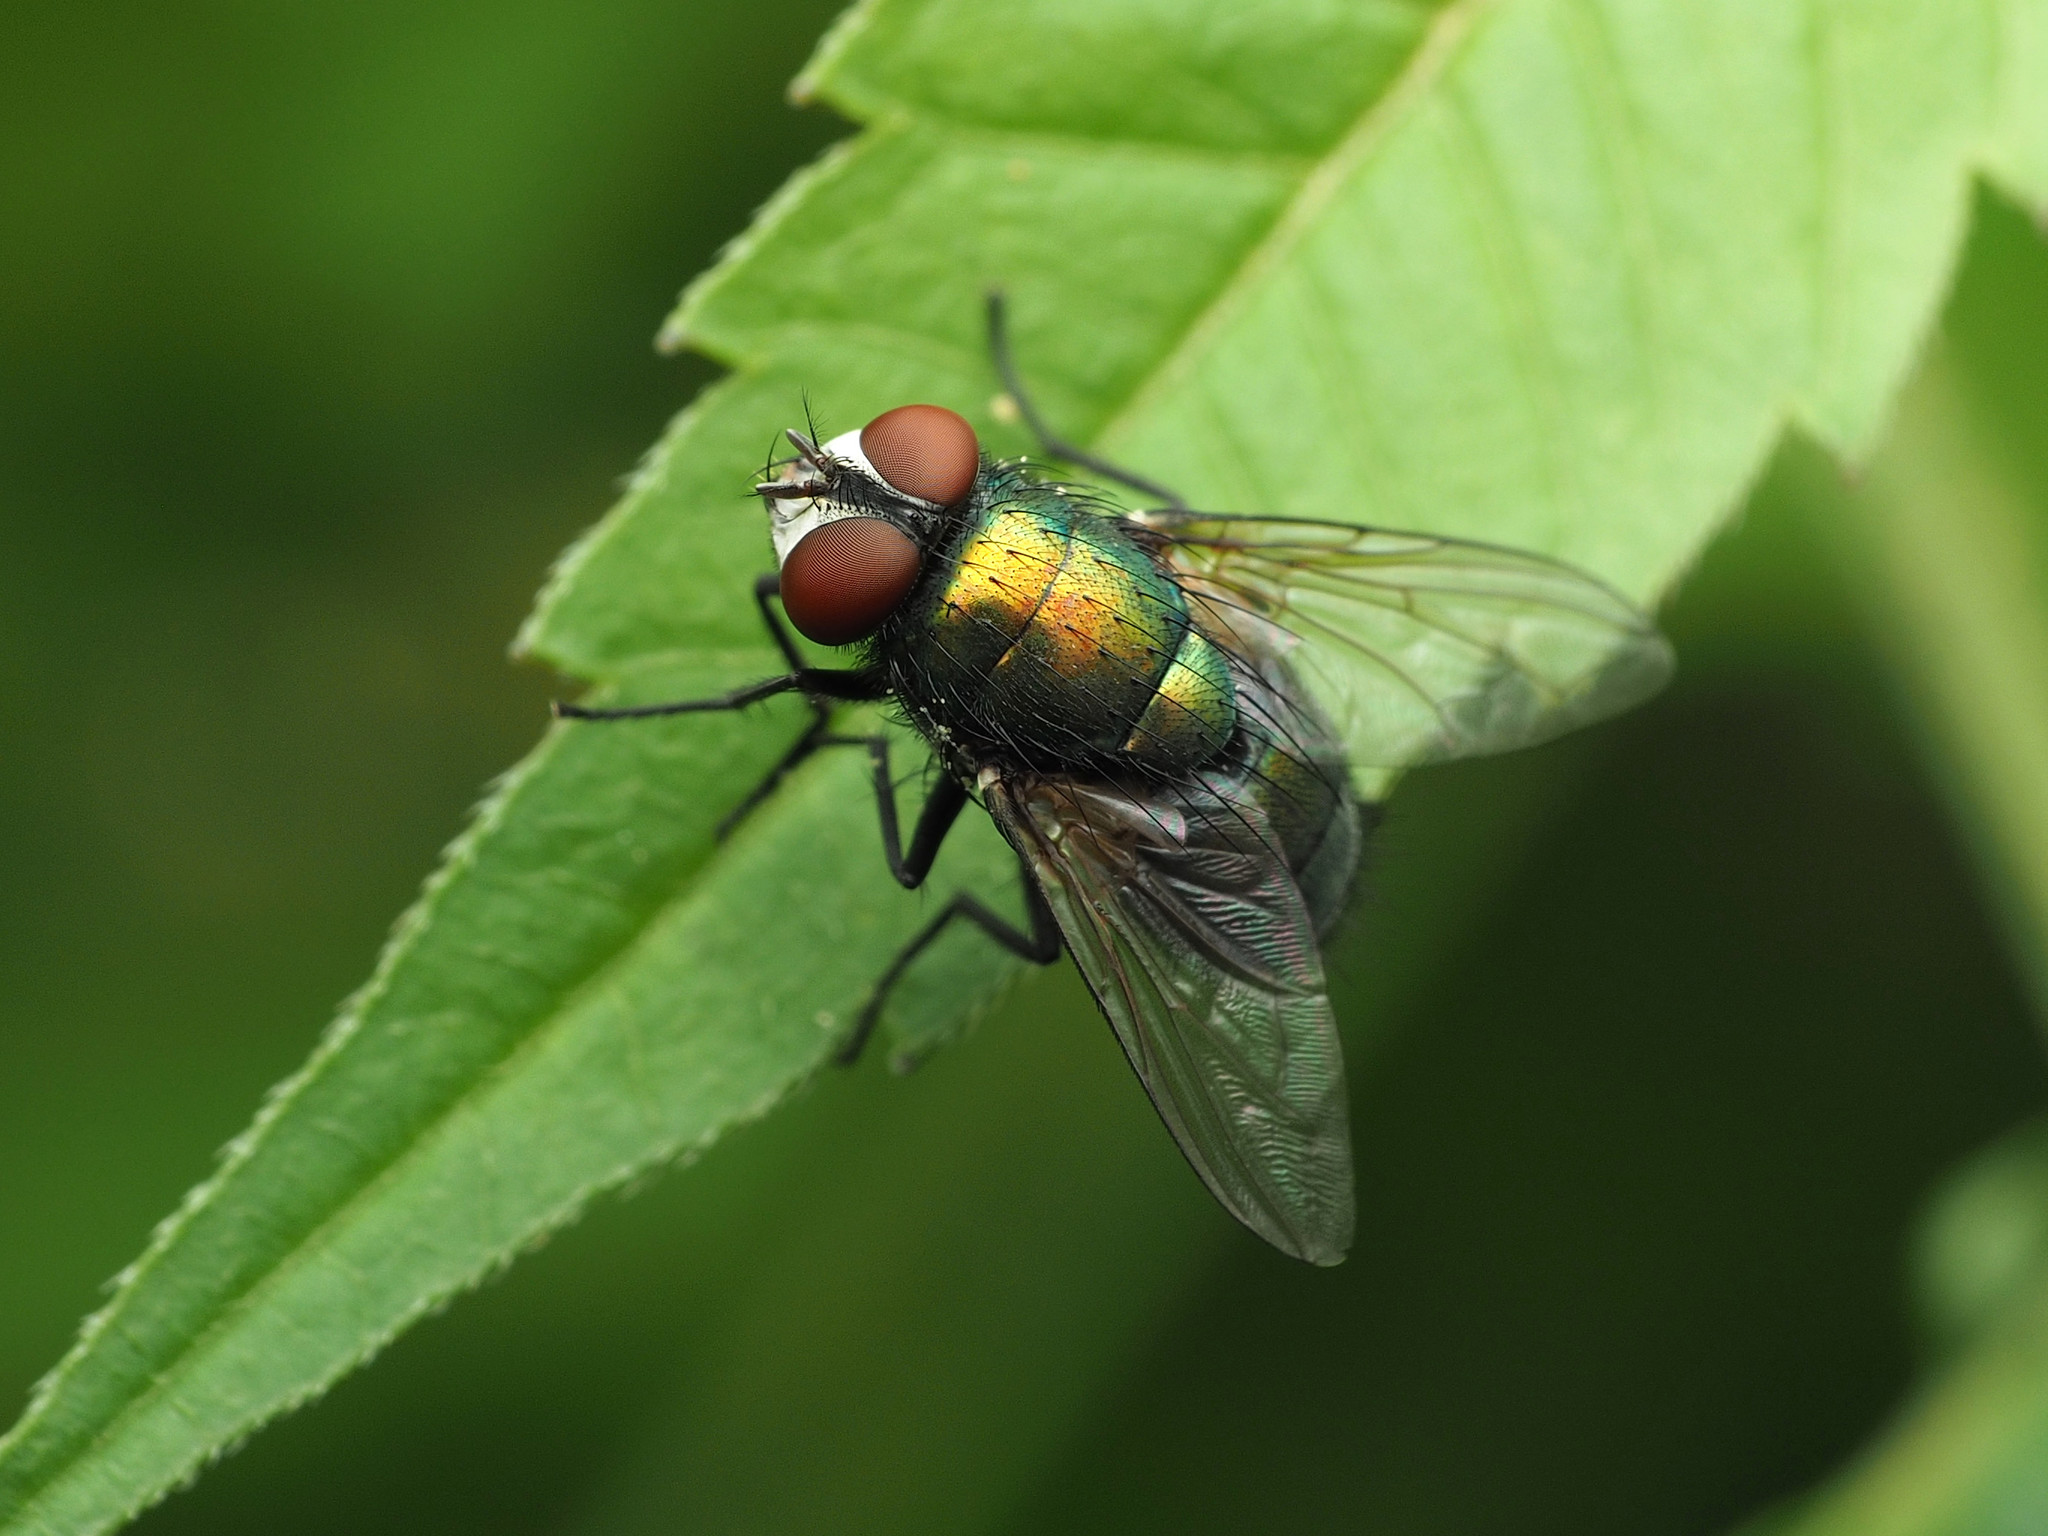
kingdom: Animalia
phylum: Arthropoda
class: Insecta
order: Diptera
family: Calliphoridae
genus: Lucilia
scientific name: Lucilia sericata
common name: Blow fly
